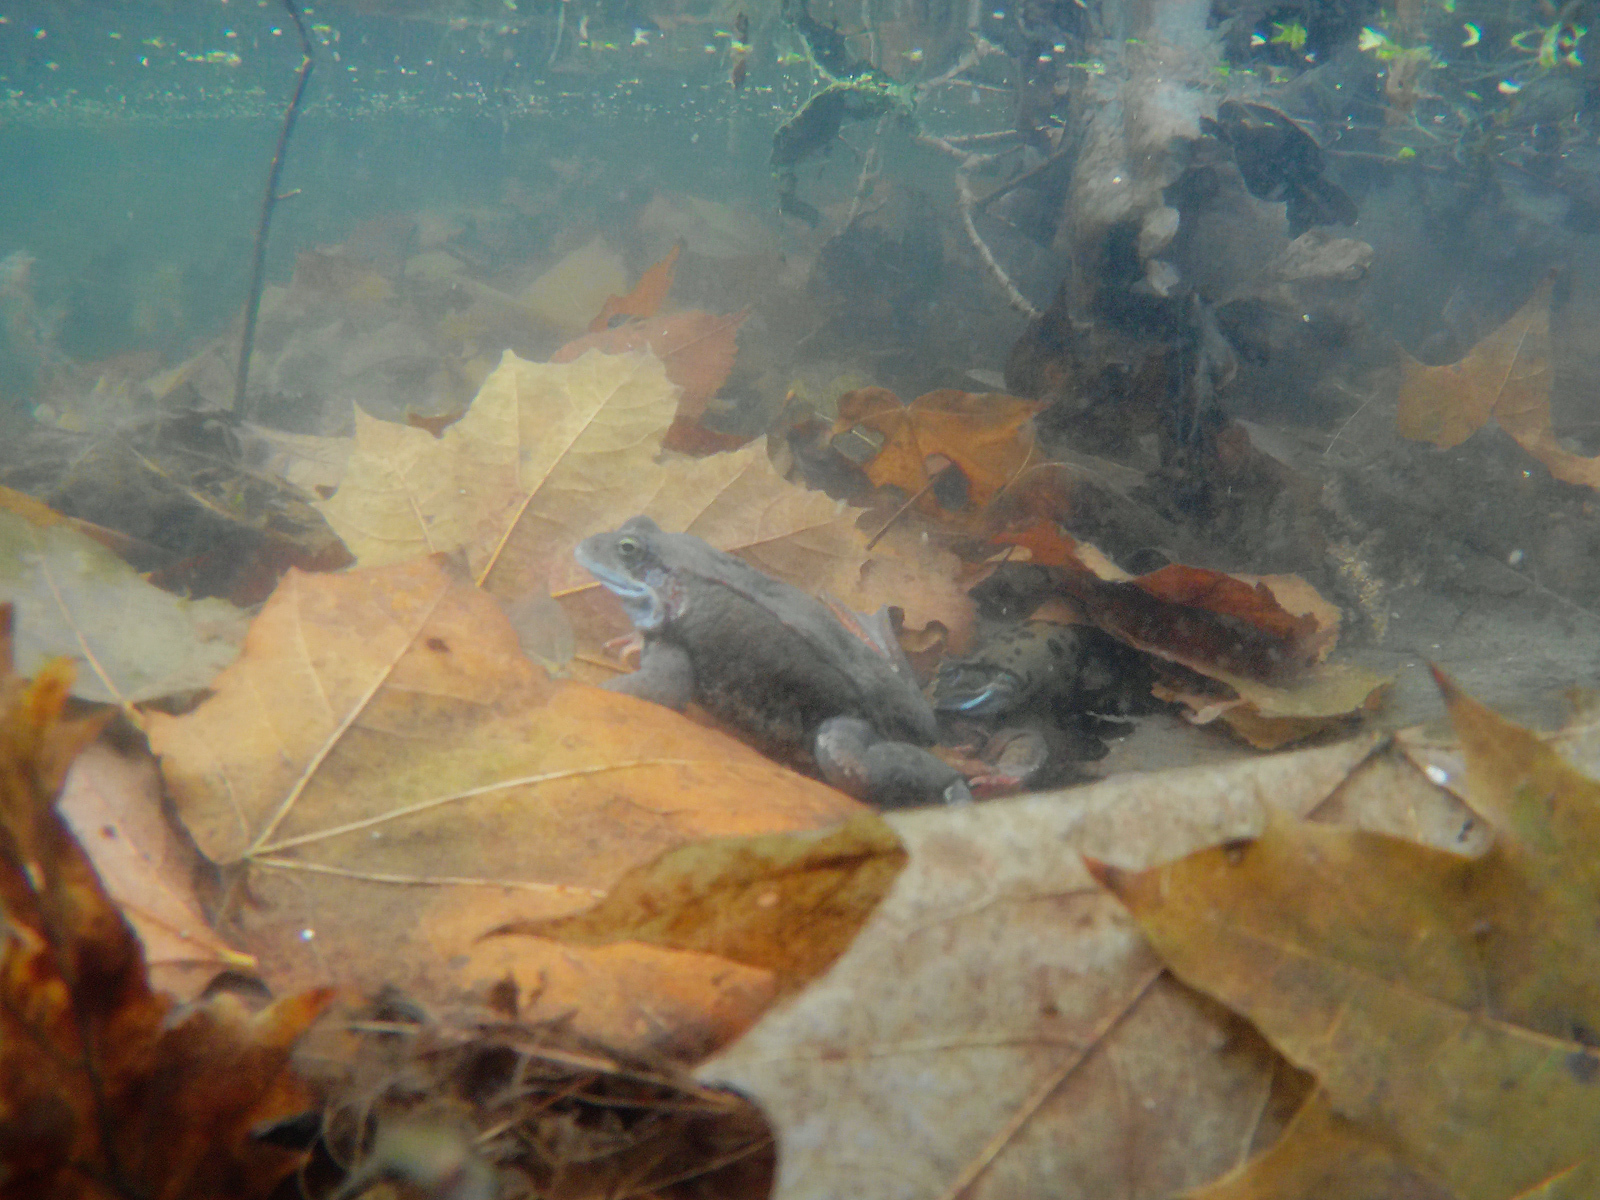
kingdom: Animalia
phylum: Chordata
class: Amphibia
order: Anura
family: Ranidae
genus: Rana
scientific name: Rana temporaria
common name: Common frog
